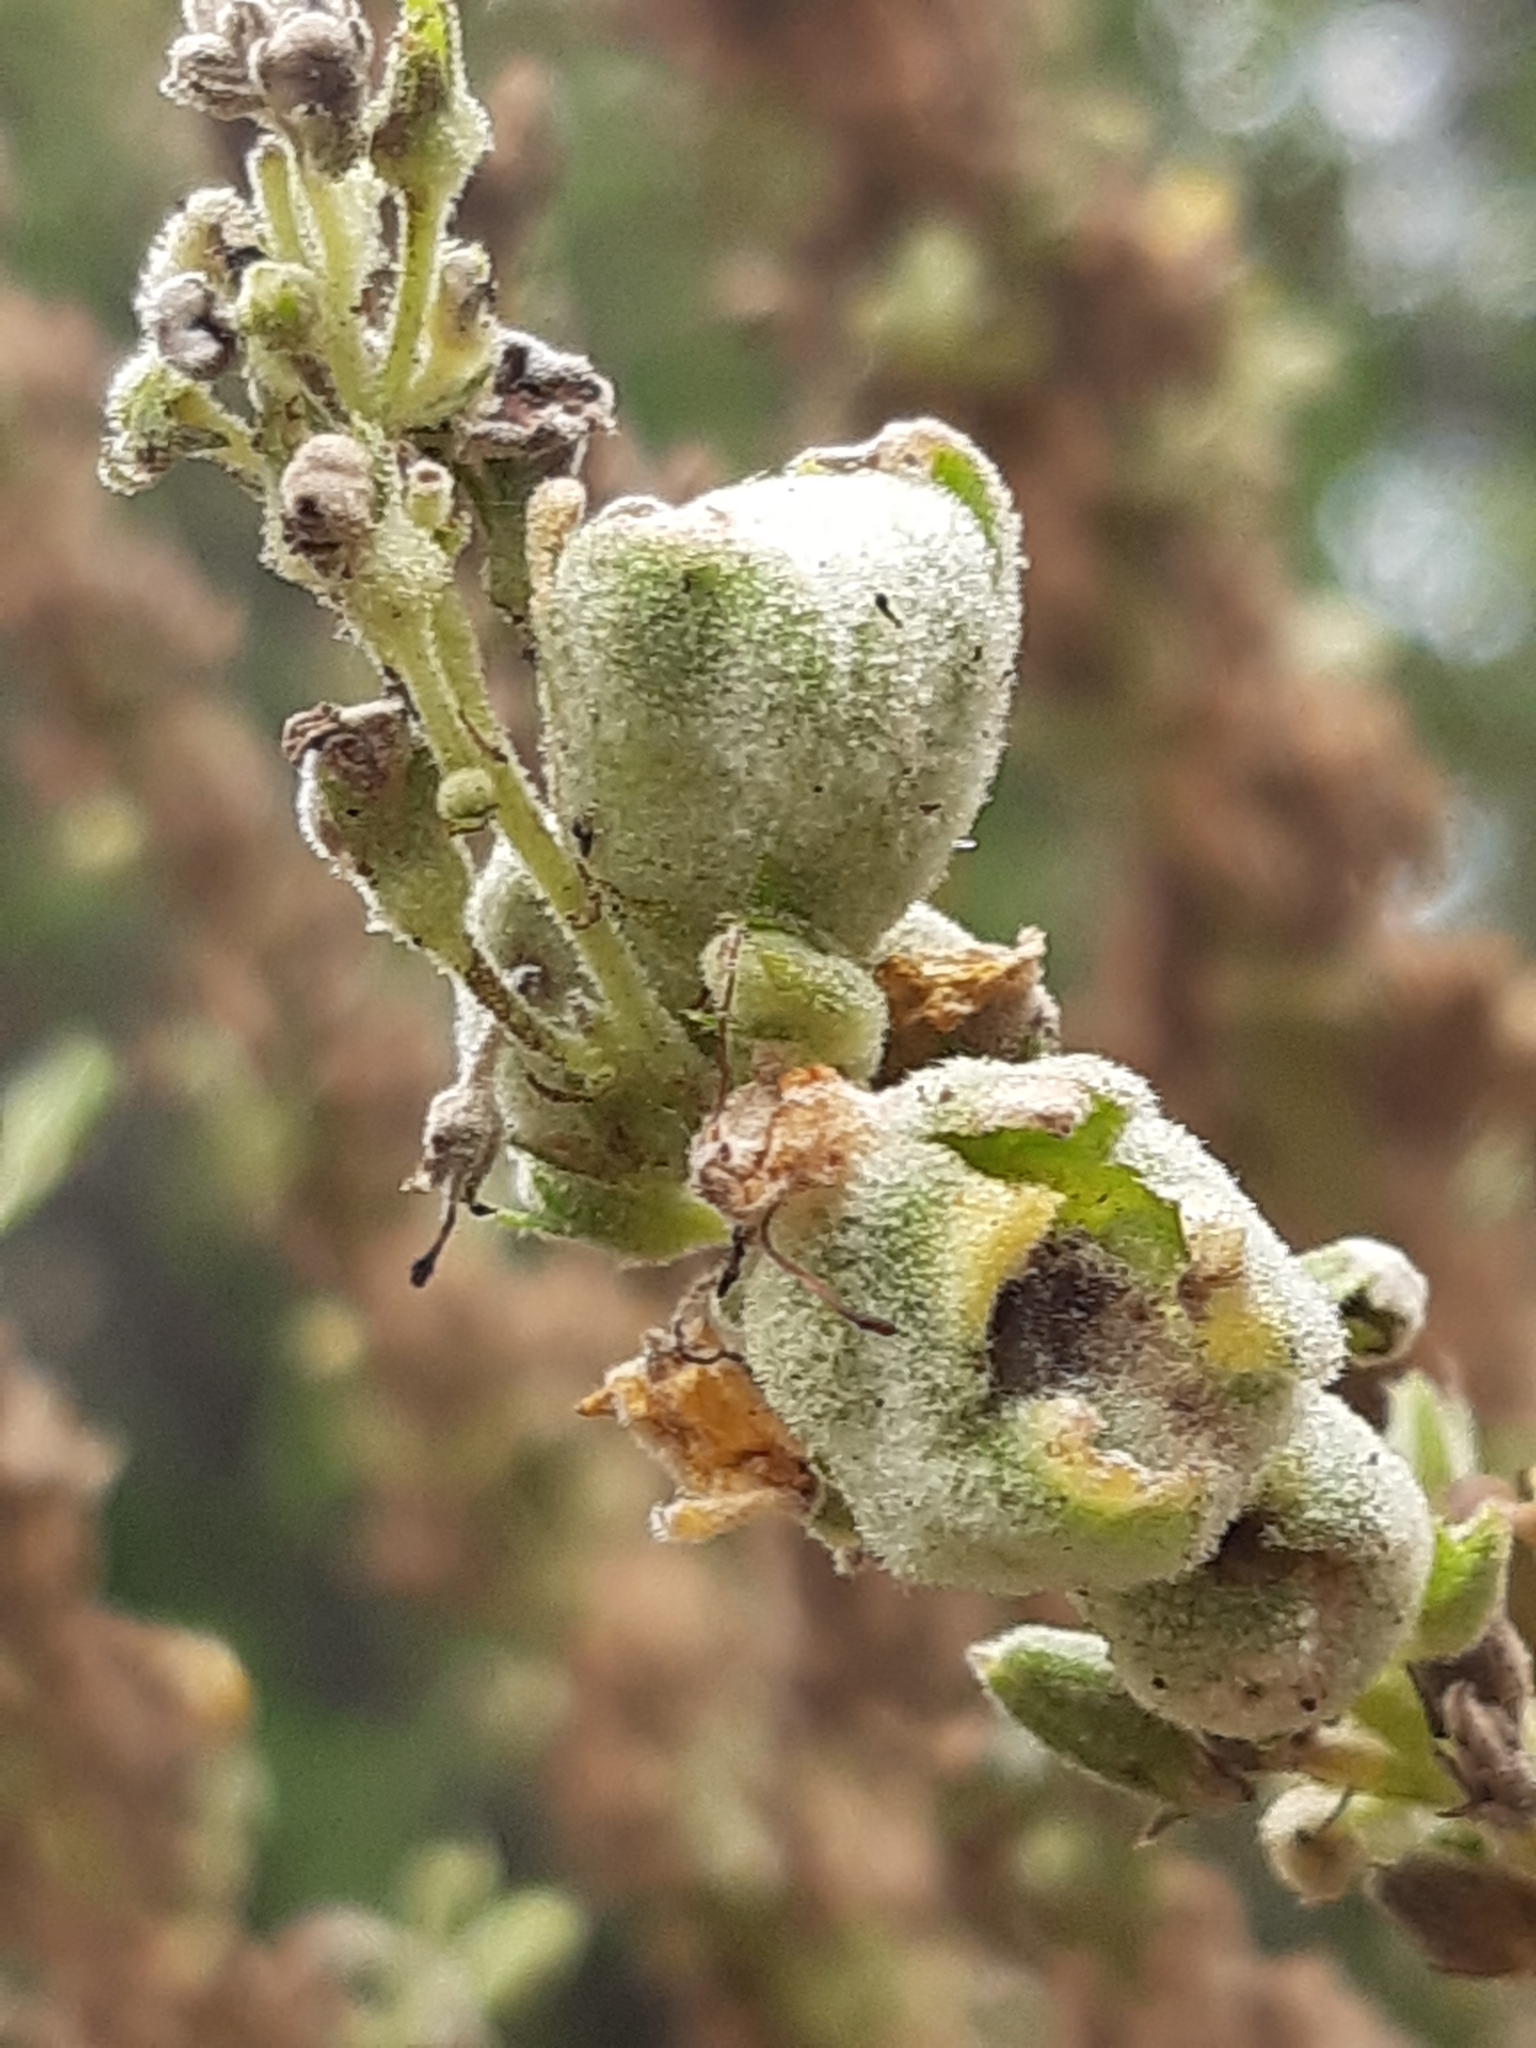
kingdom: Animalia
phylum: Arthropoda
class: Insecta
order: Diptera
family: Cecidomyiidae
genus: Asphondylia
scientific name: Asphondylia verbasci
